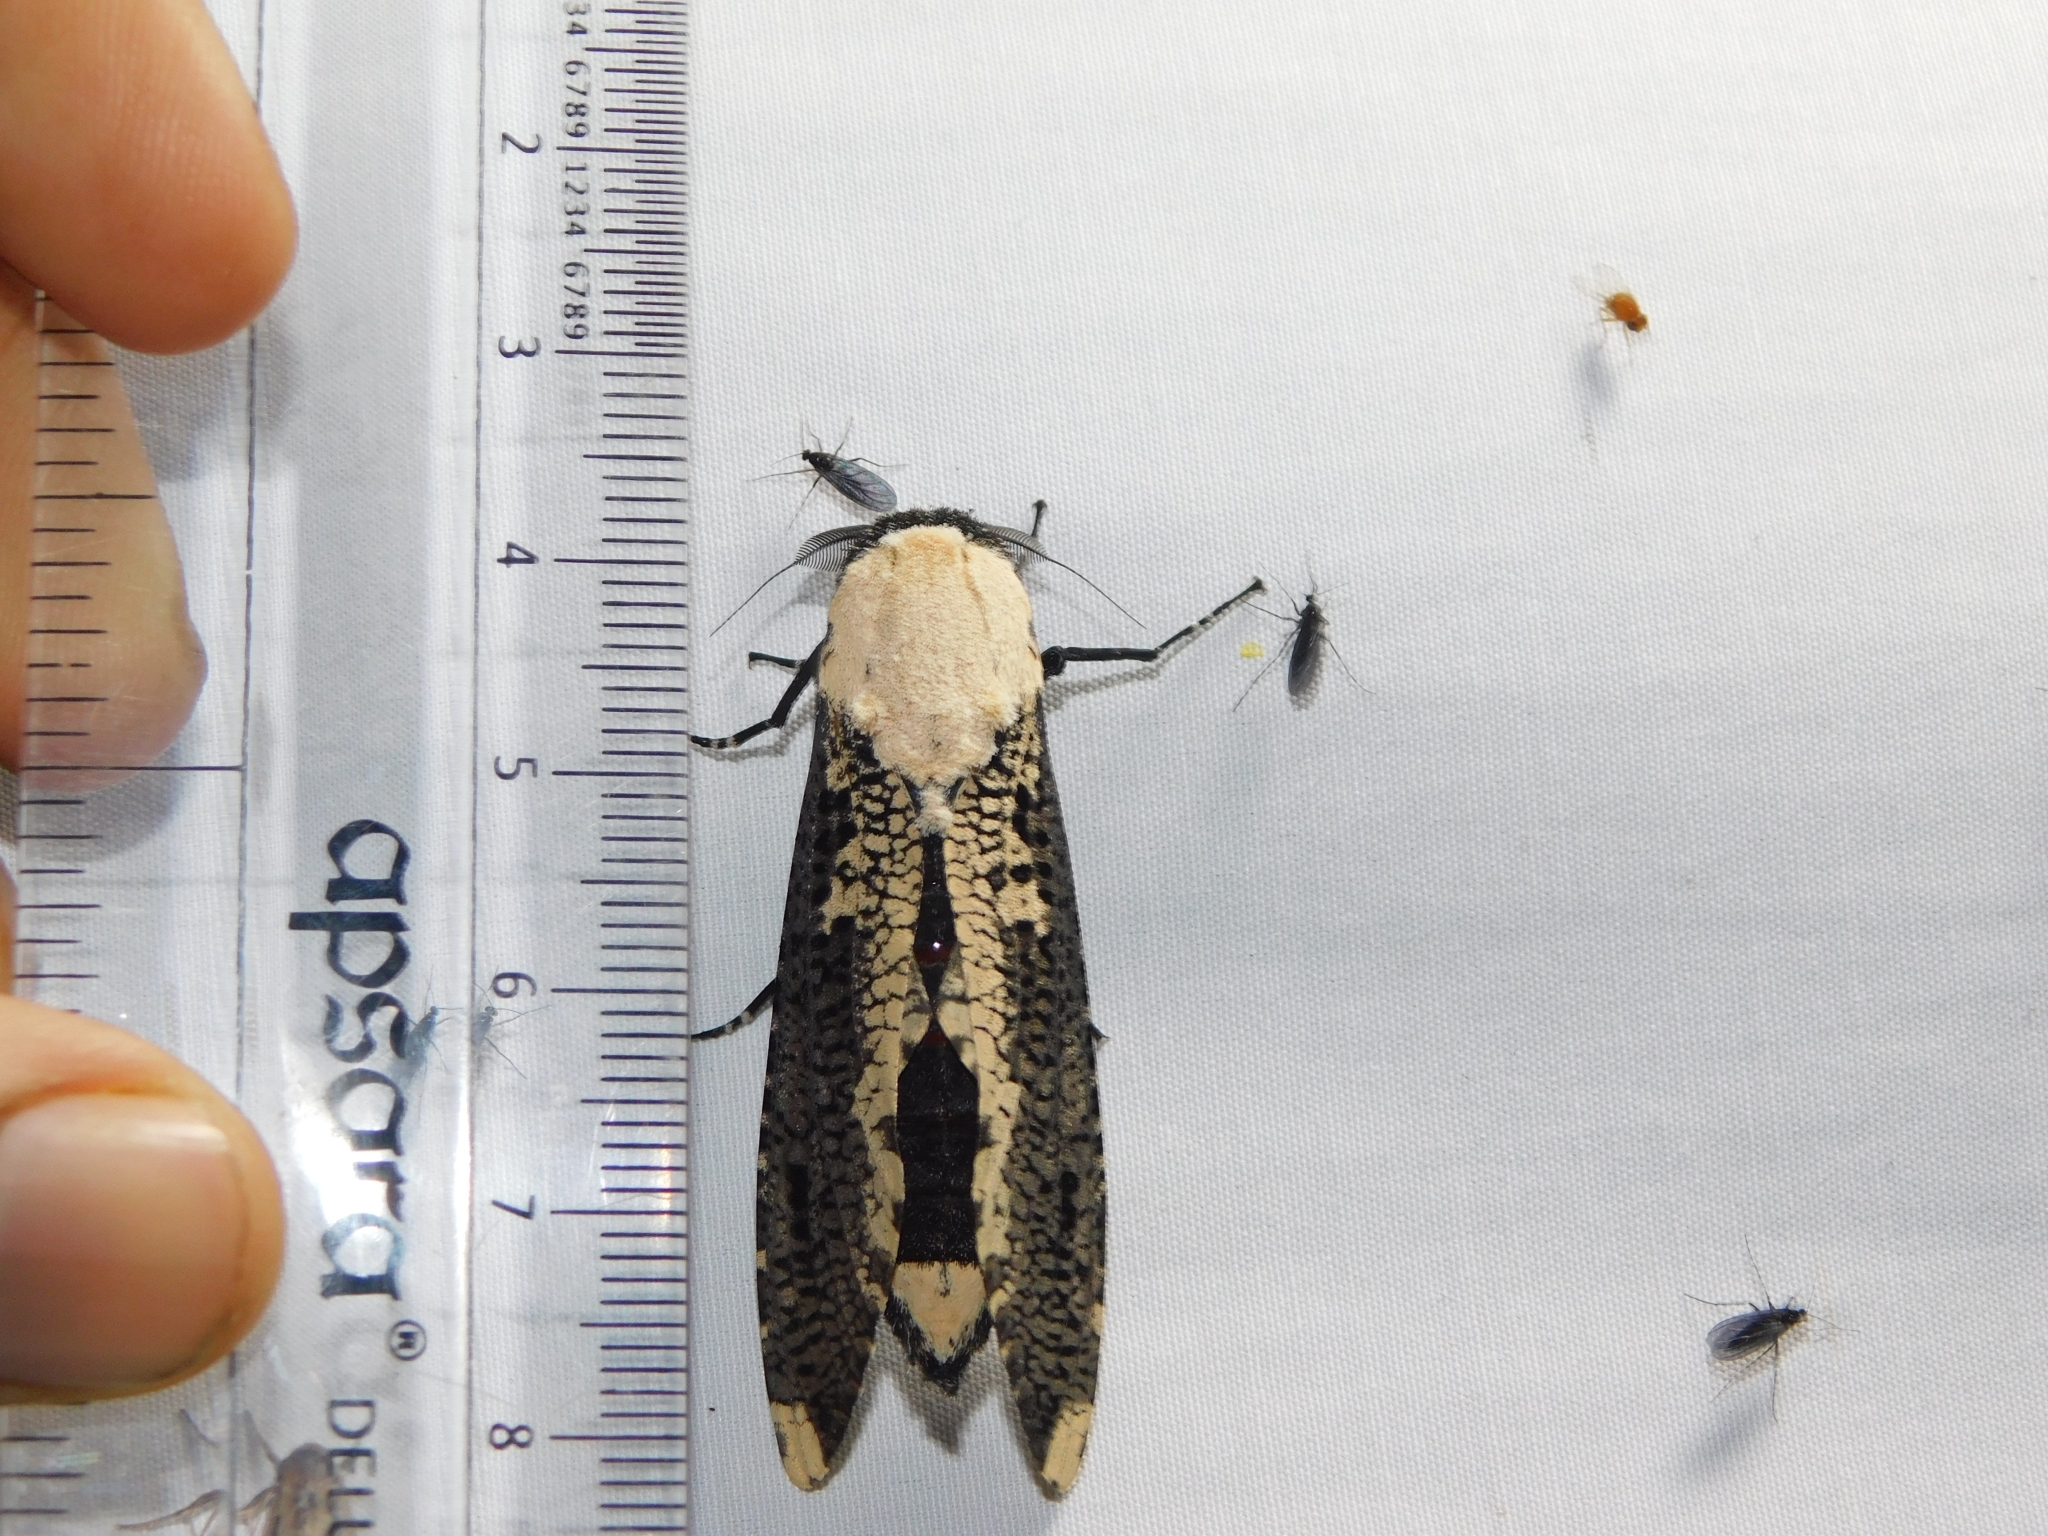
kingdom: Animalia
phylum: Arthropoda
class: Insecta
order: Lepidoptera
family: Cossidae
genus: Xyleutes
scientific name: Xyleutes persona
